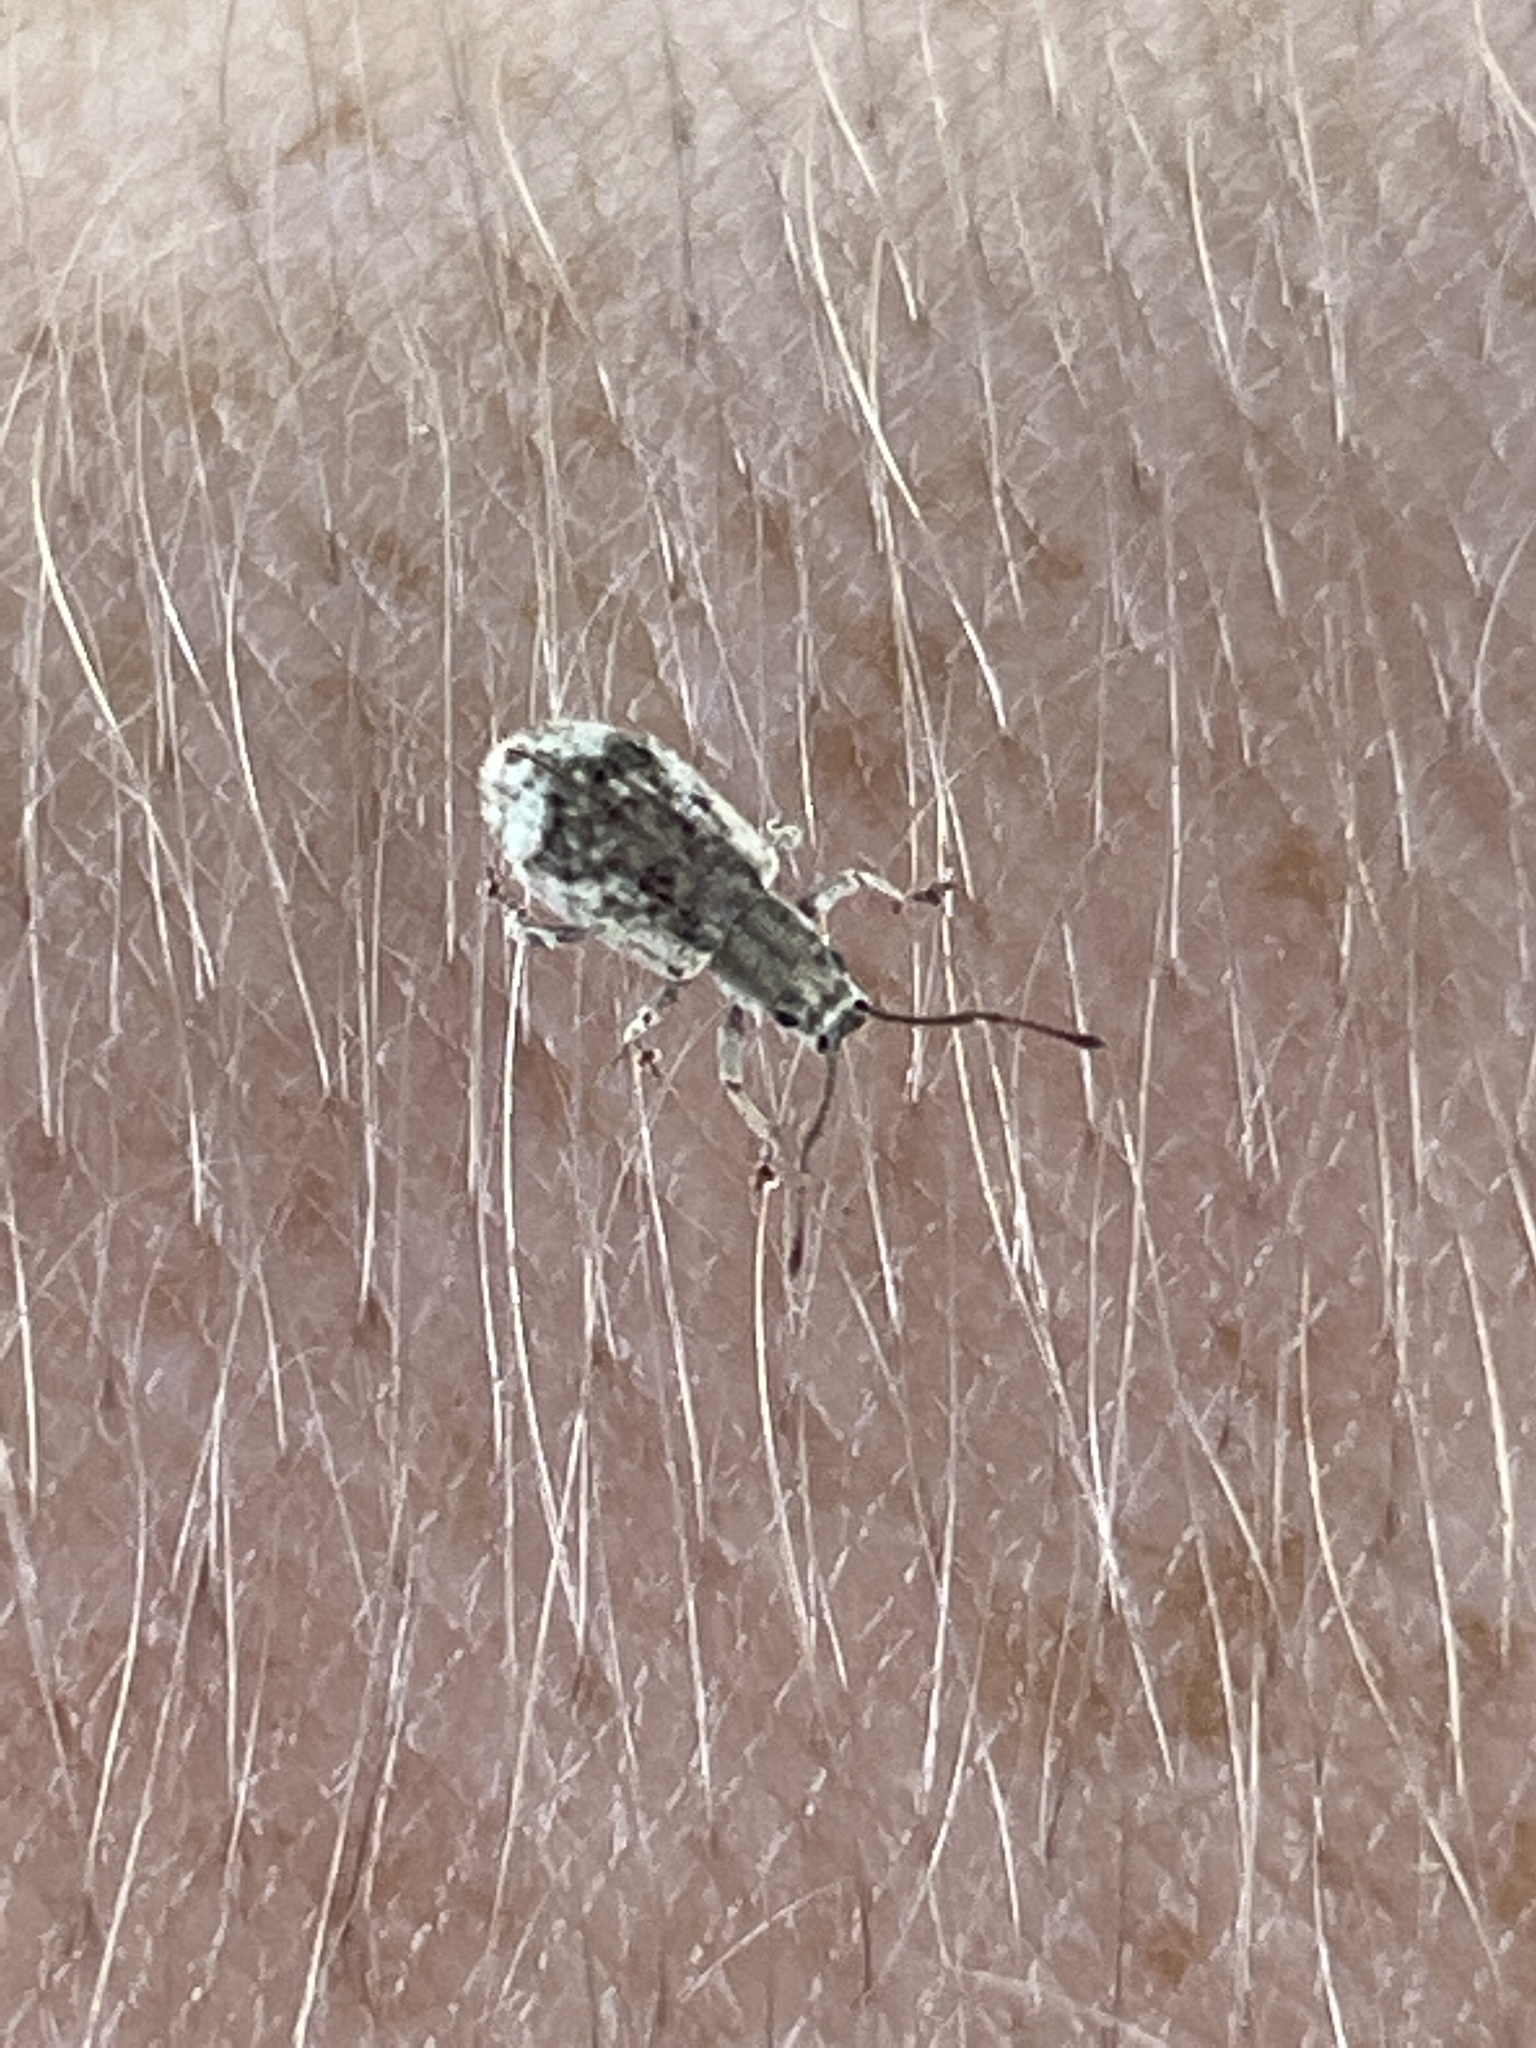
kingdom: Animalia
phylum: Arthropoda
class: Insecta
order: Coleoptera
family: Curculionidae
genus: Pseudoedophrys
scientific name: Pseudoedophrys hilleri
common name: Weevil
